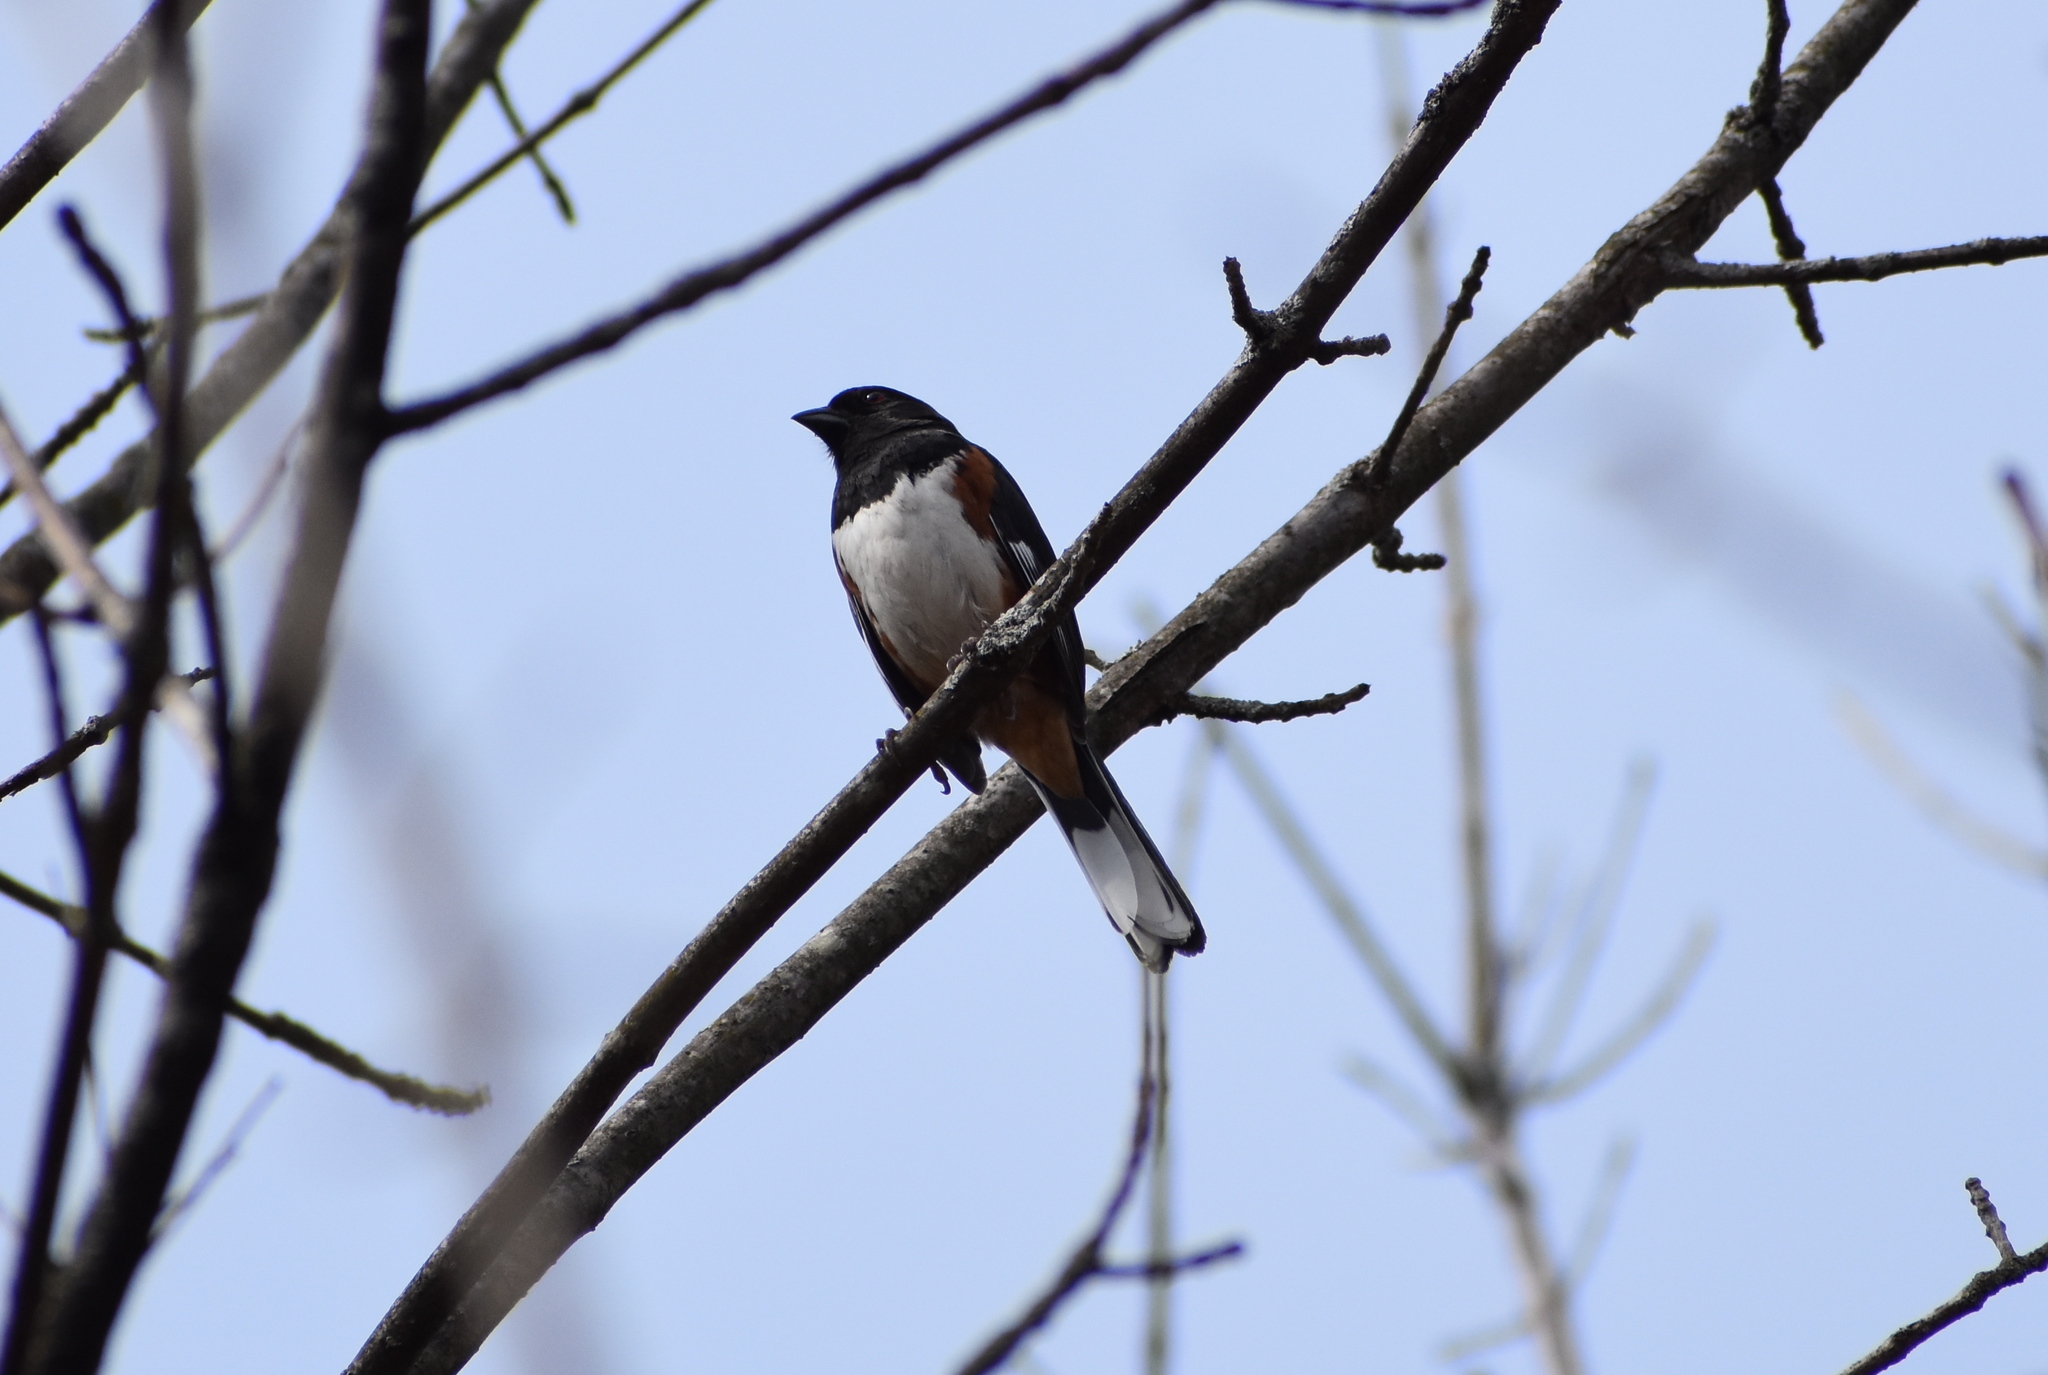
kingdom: Animalia
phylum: Chordata
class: Aves
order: Passeriformes
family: Passerellidae
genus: Pipilo
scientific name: Pipilo erythrophthalmus
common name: Eastern towhee
